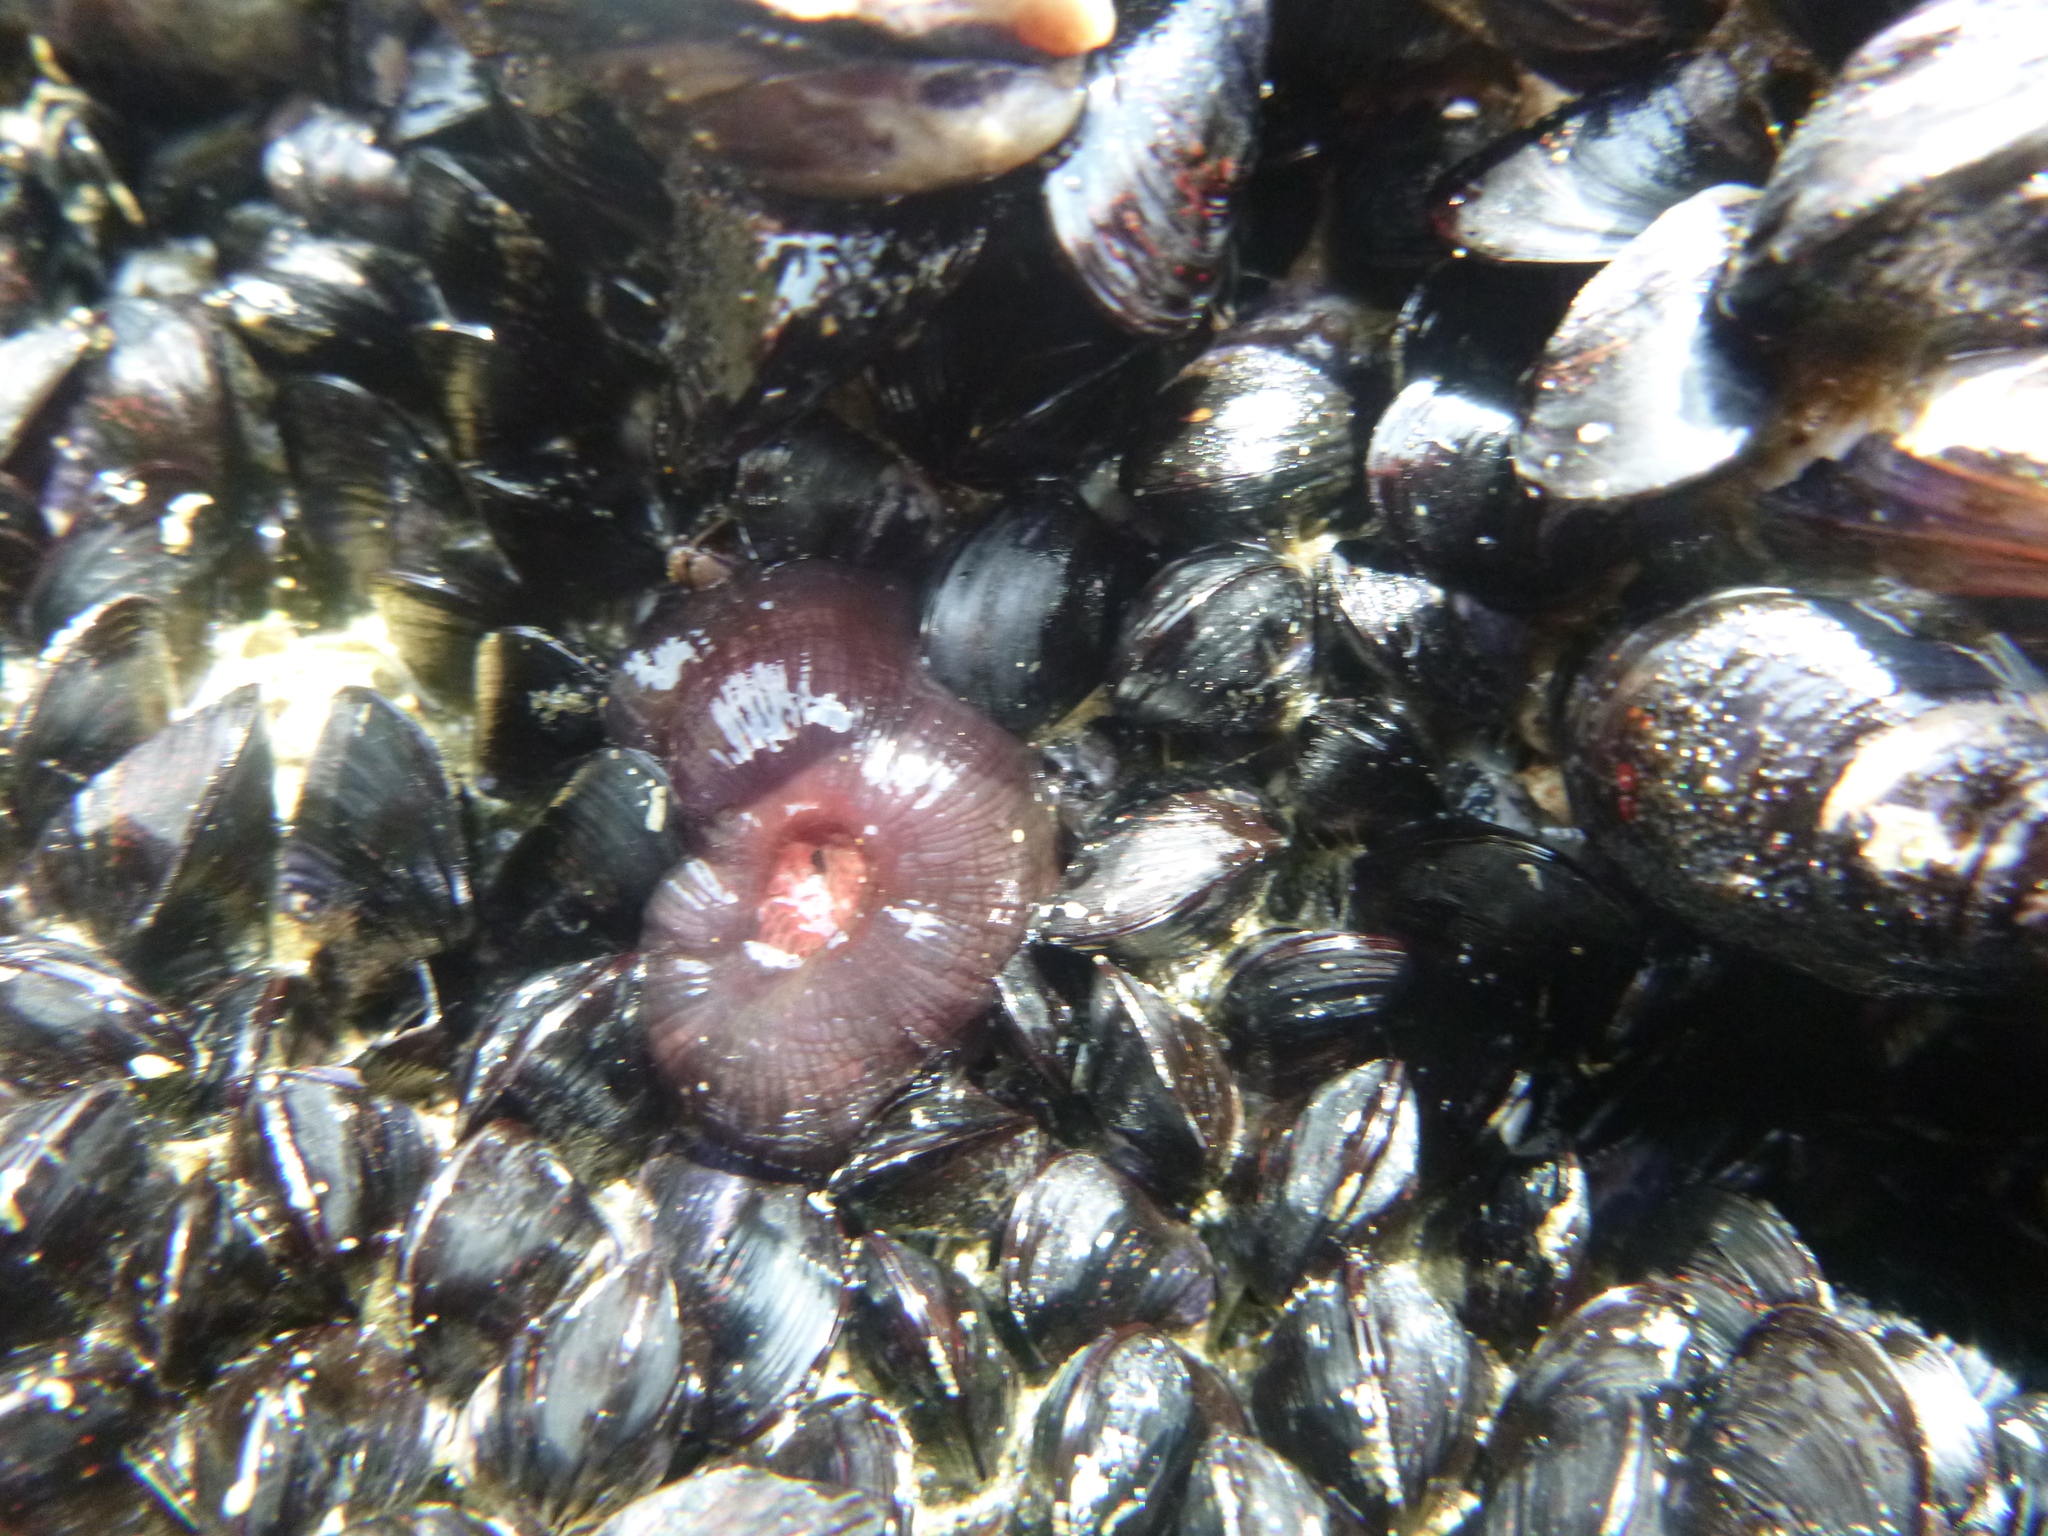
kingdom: Animalia
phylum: Cnidaria
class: Anthozoa
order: Actiniaria
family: Actiniidae
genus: Actinia
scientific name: Actinia tenebrosa
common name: Waratah anemone
